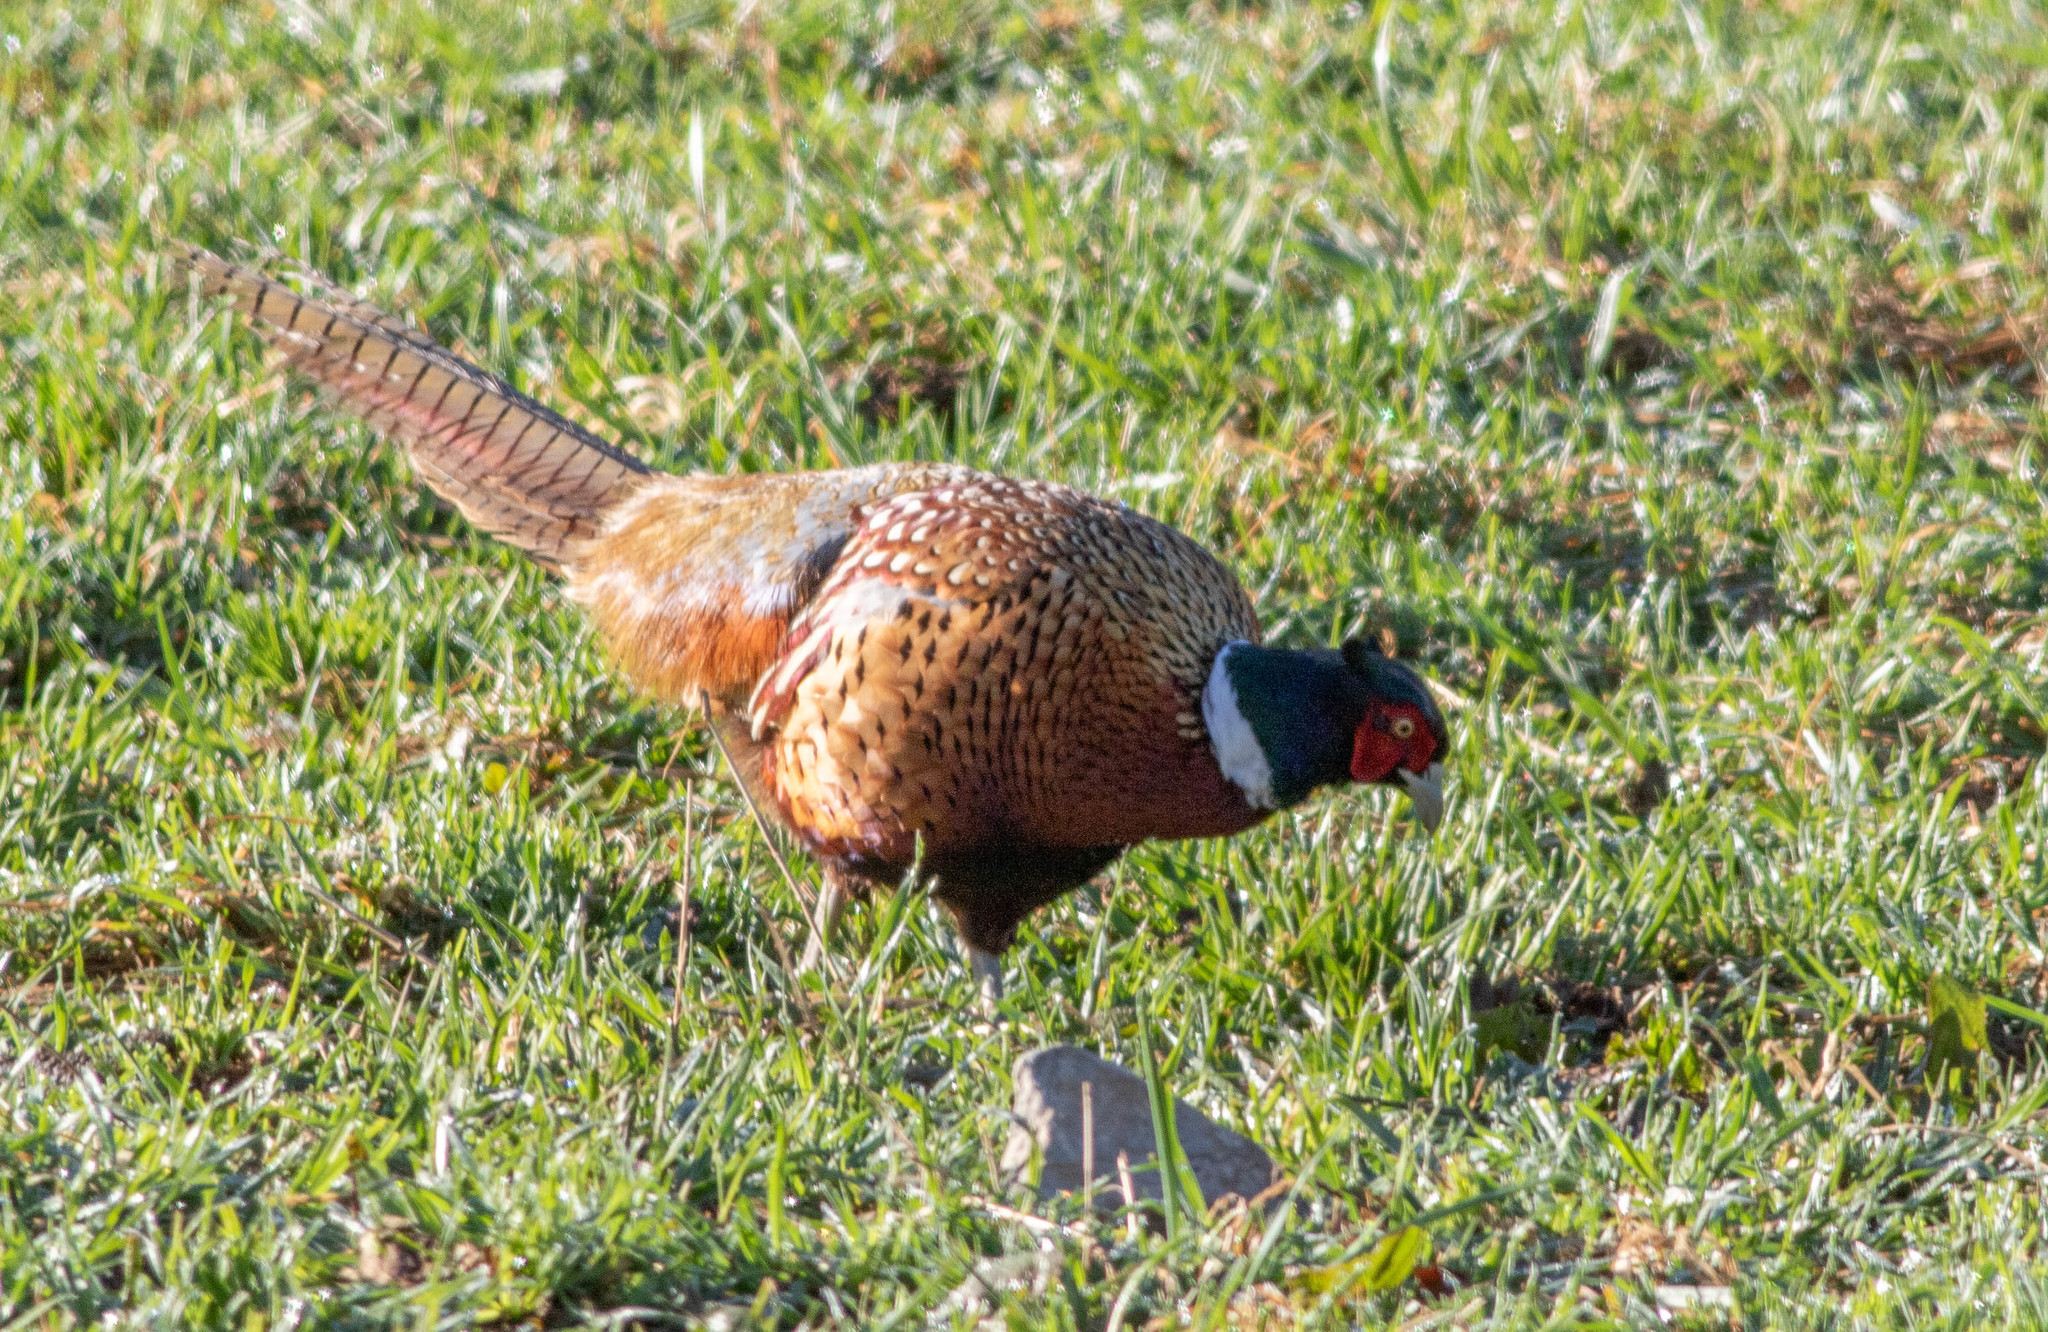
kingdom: Animalia
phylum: Chordata
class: Aves
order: Galliformes
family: Phasianidae
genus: Phasianus
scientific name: Phasianus colchicus
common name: Common pheasant
